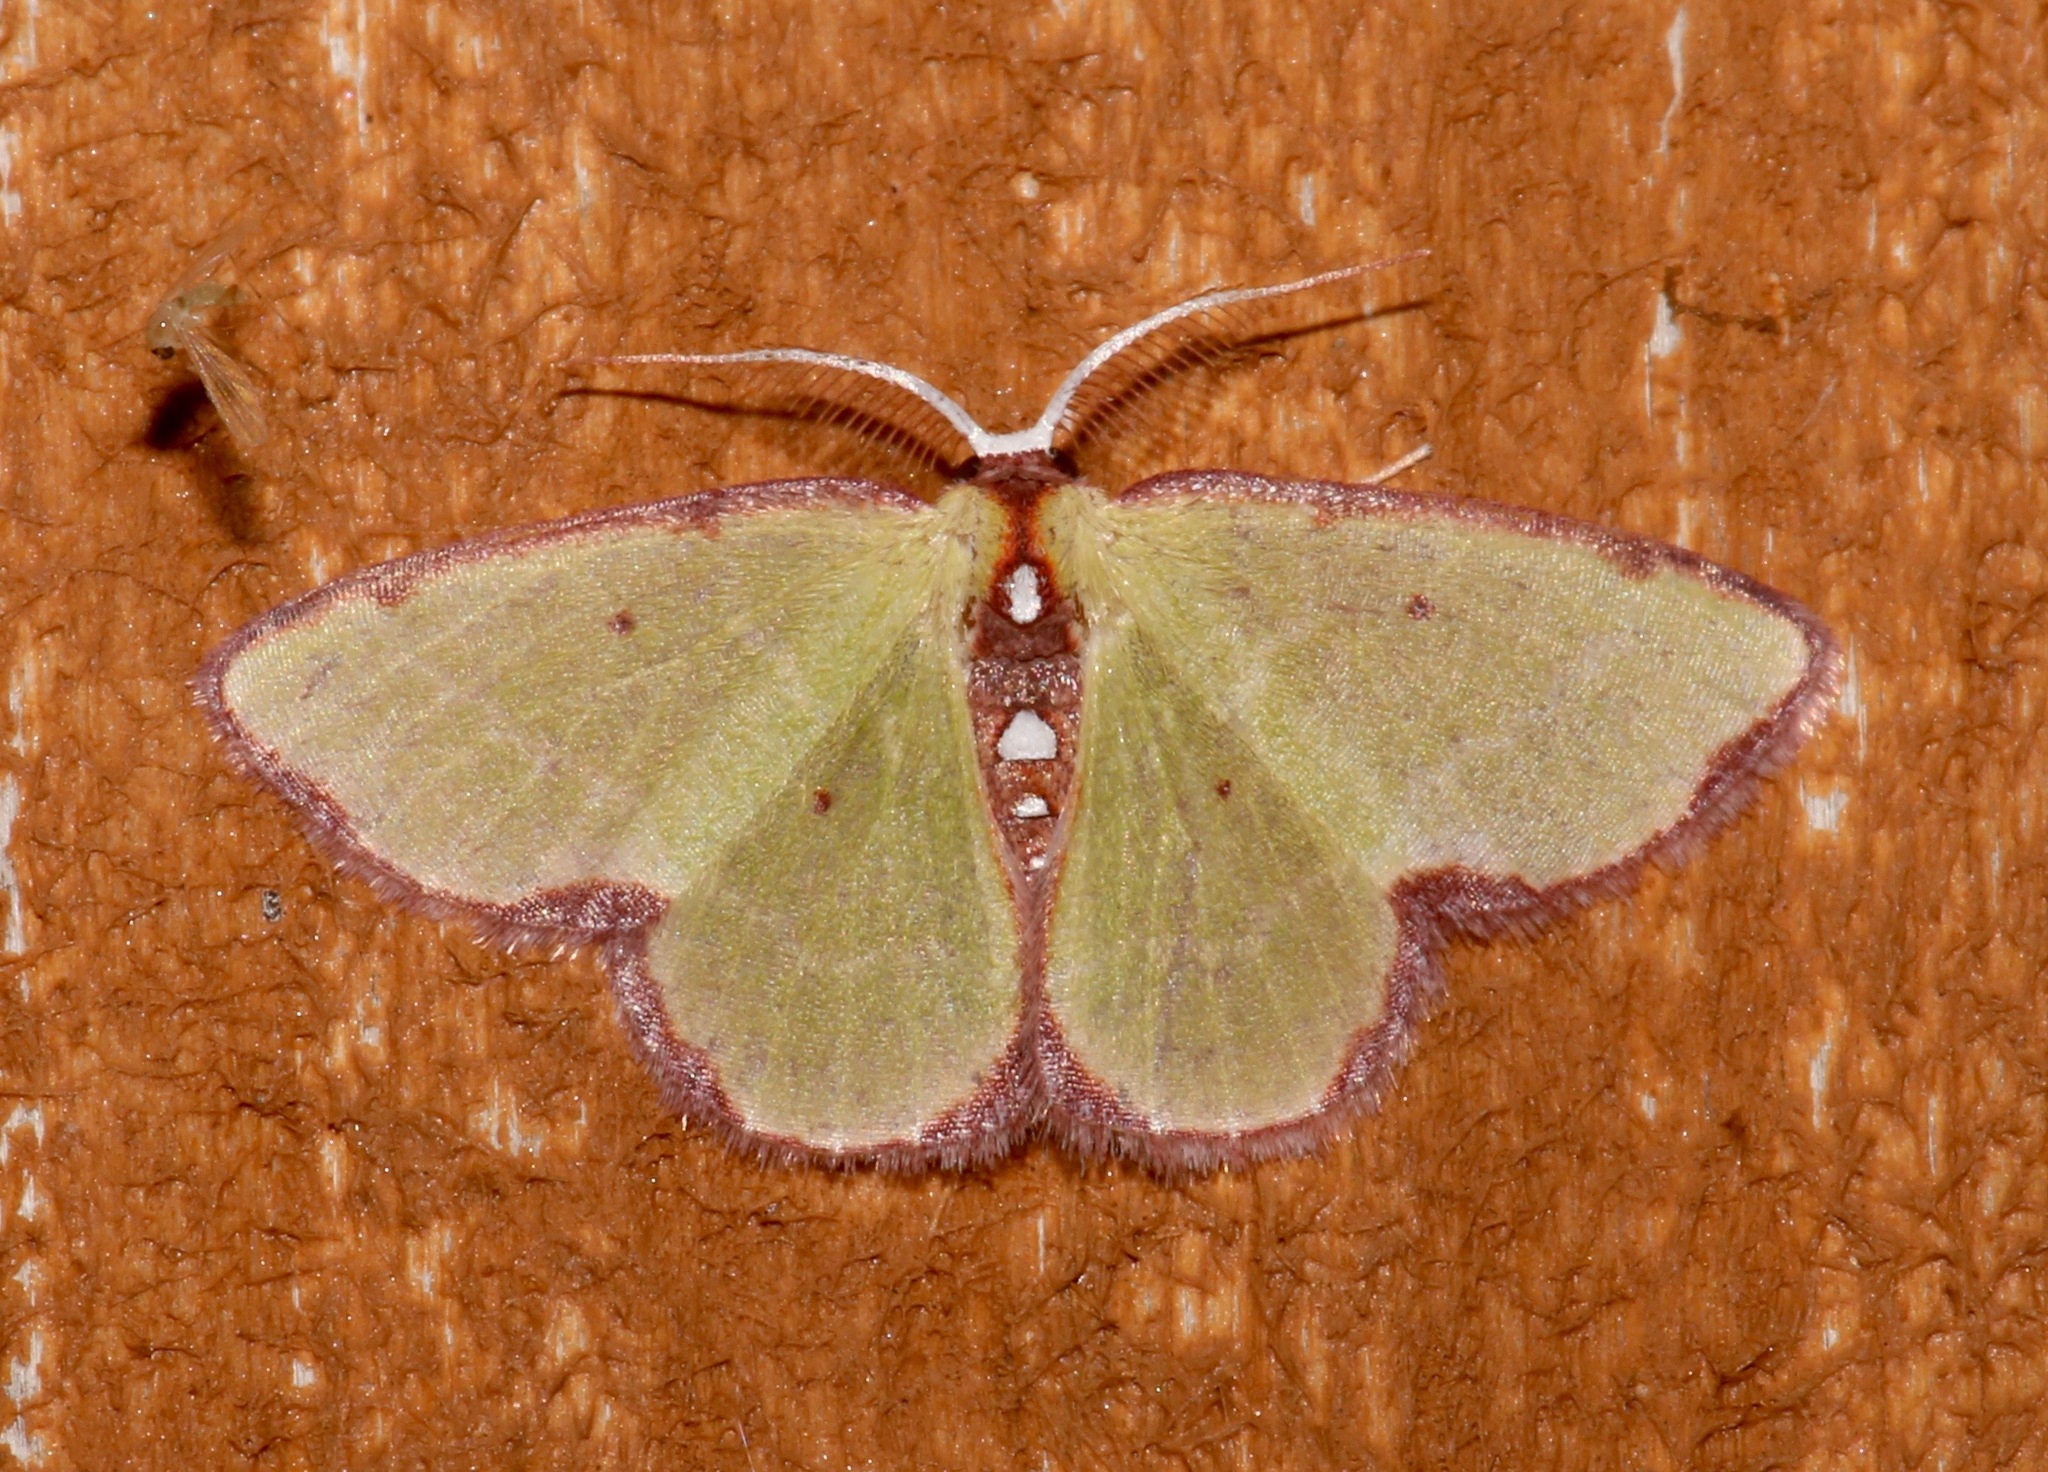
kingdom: Animalia
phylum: Arthropoda
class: Insecta
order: Lepidoptera
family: Geometridae
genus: Synchlora
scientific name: Synchlora cupedinaria
